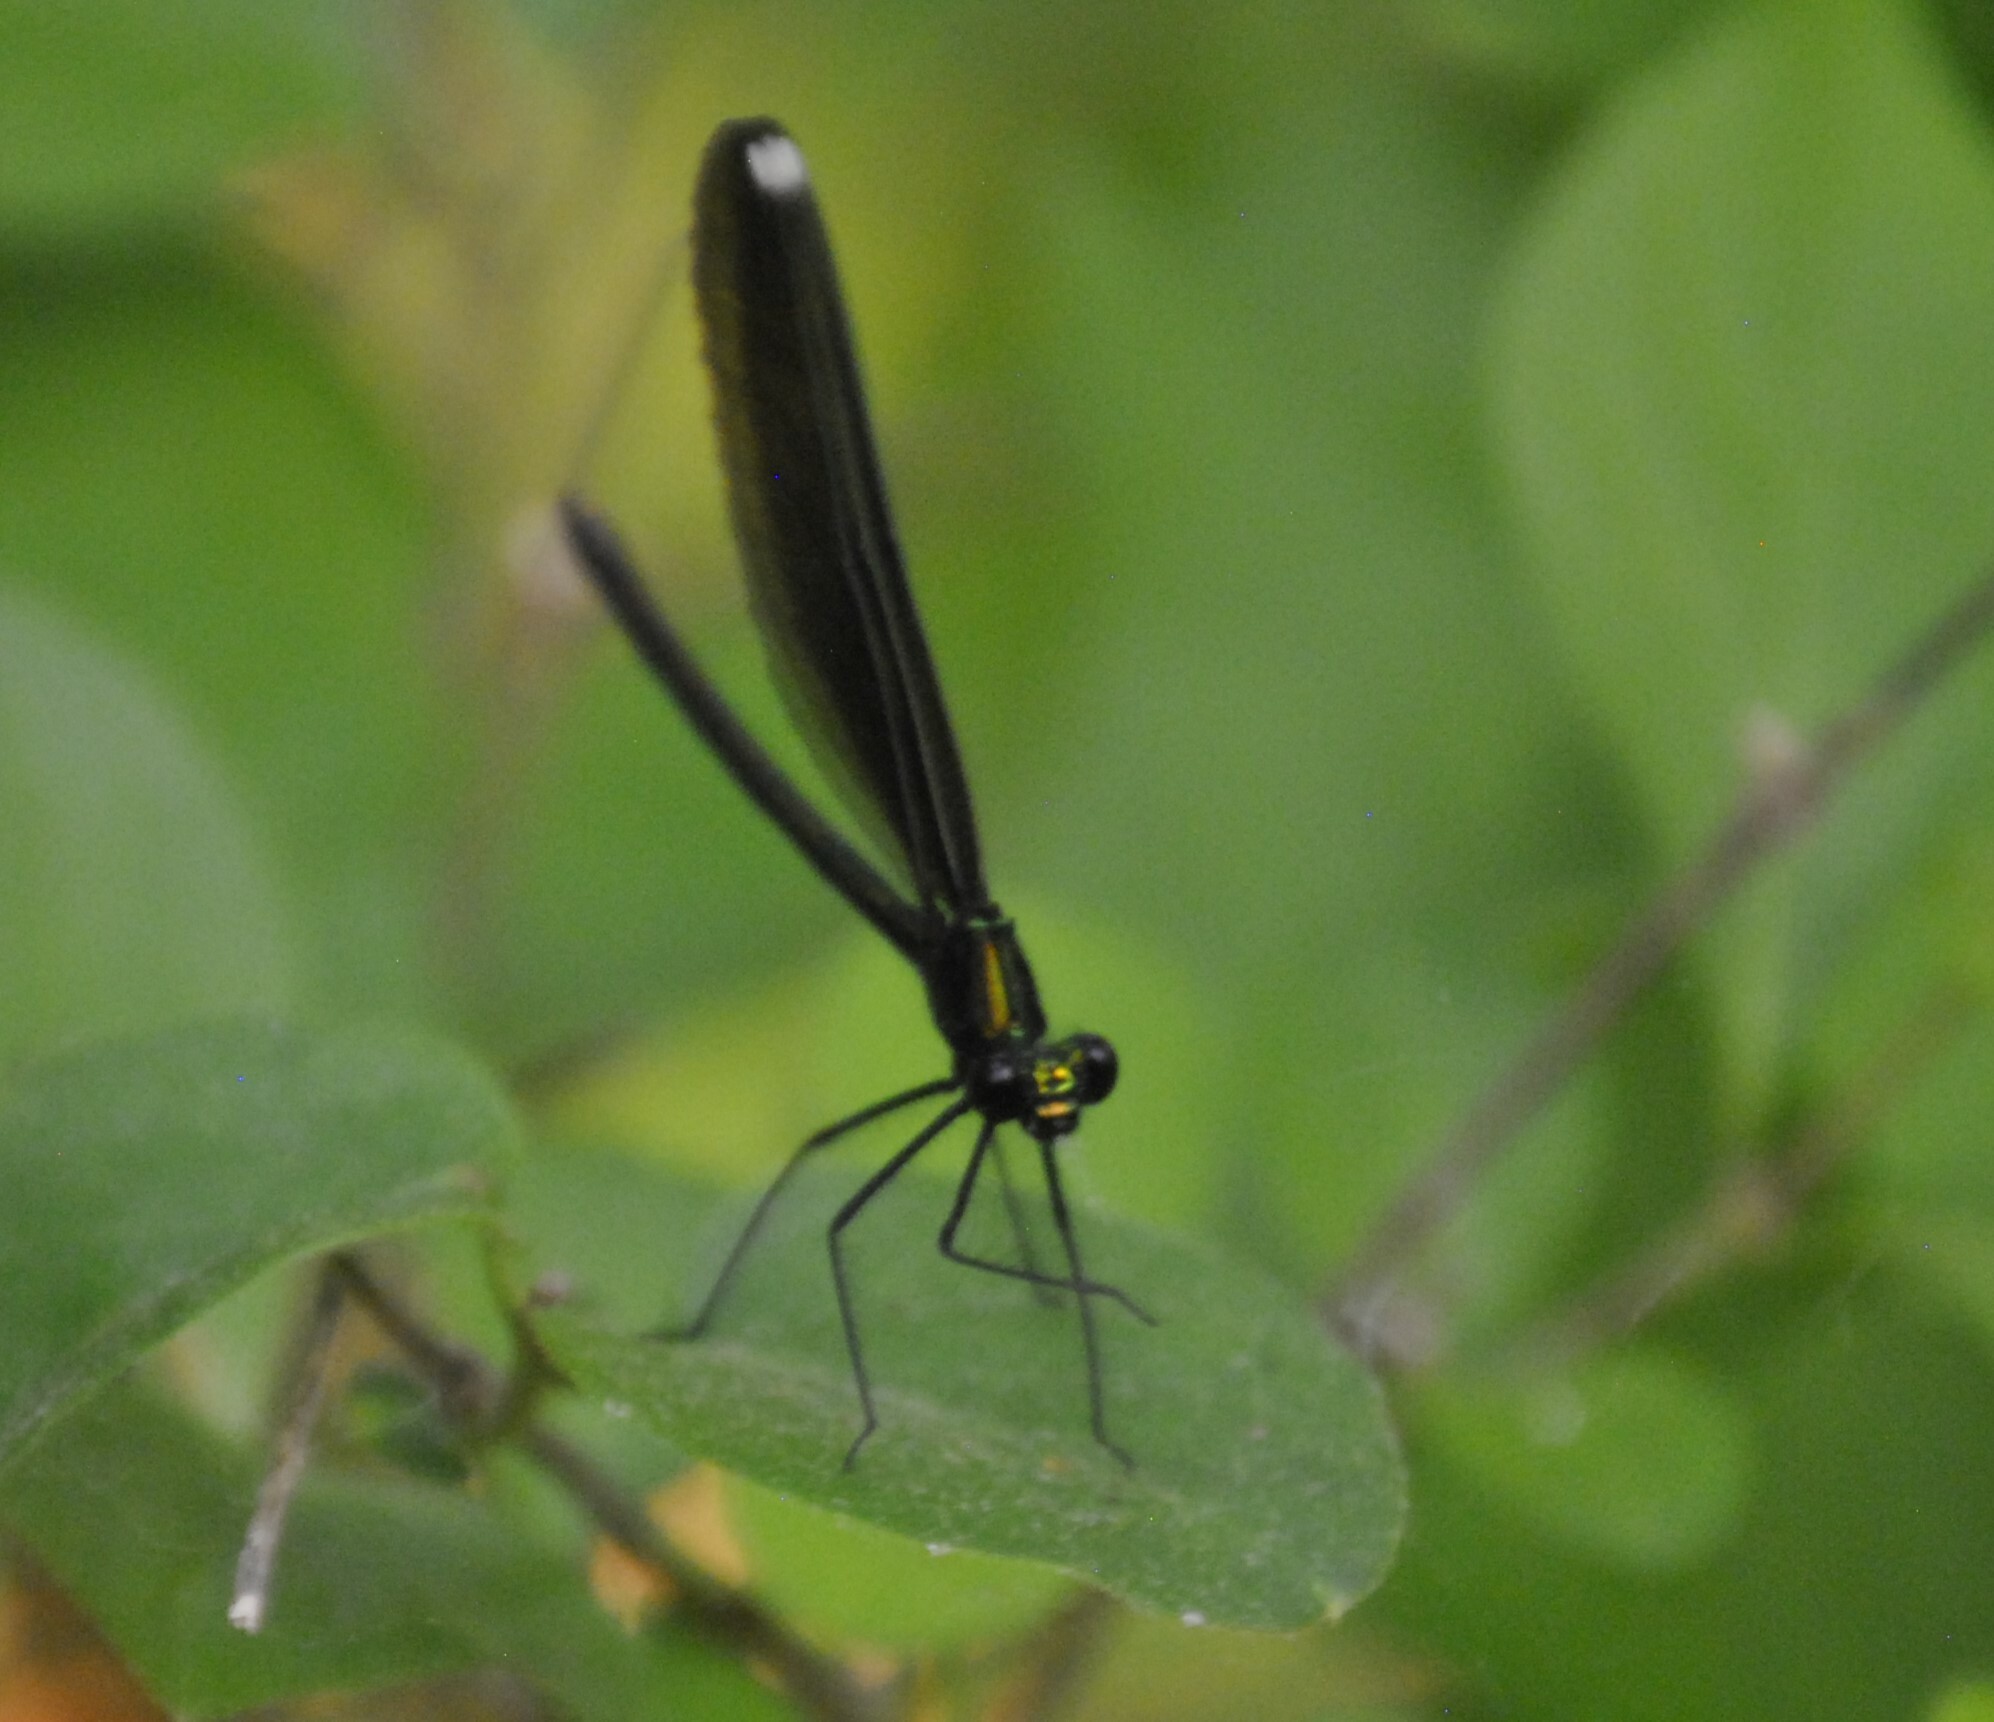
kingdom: Animalia
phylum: Arthropoda
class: Insecta
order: Odonata
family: Calopterygidae
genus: Calopteryx
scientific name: Calopteryx maculata
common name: Ebony jewelwing
